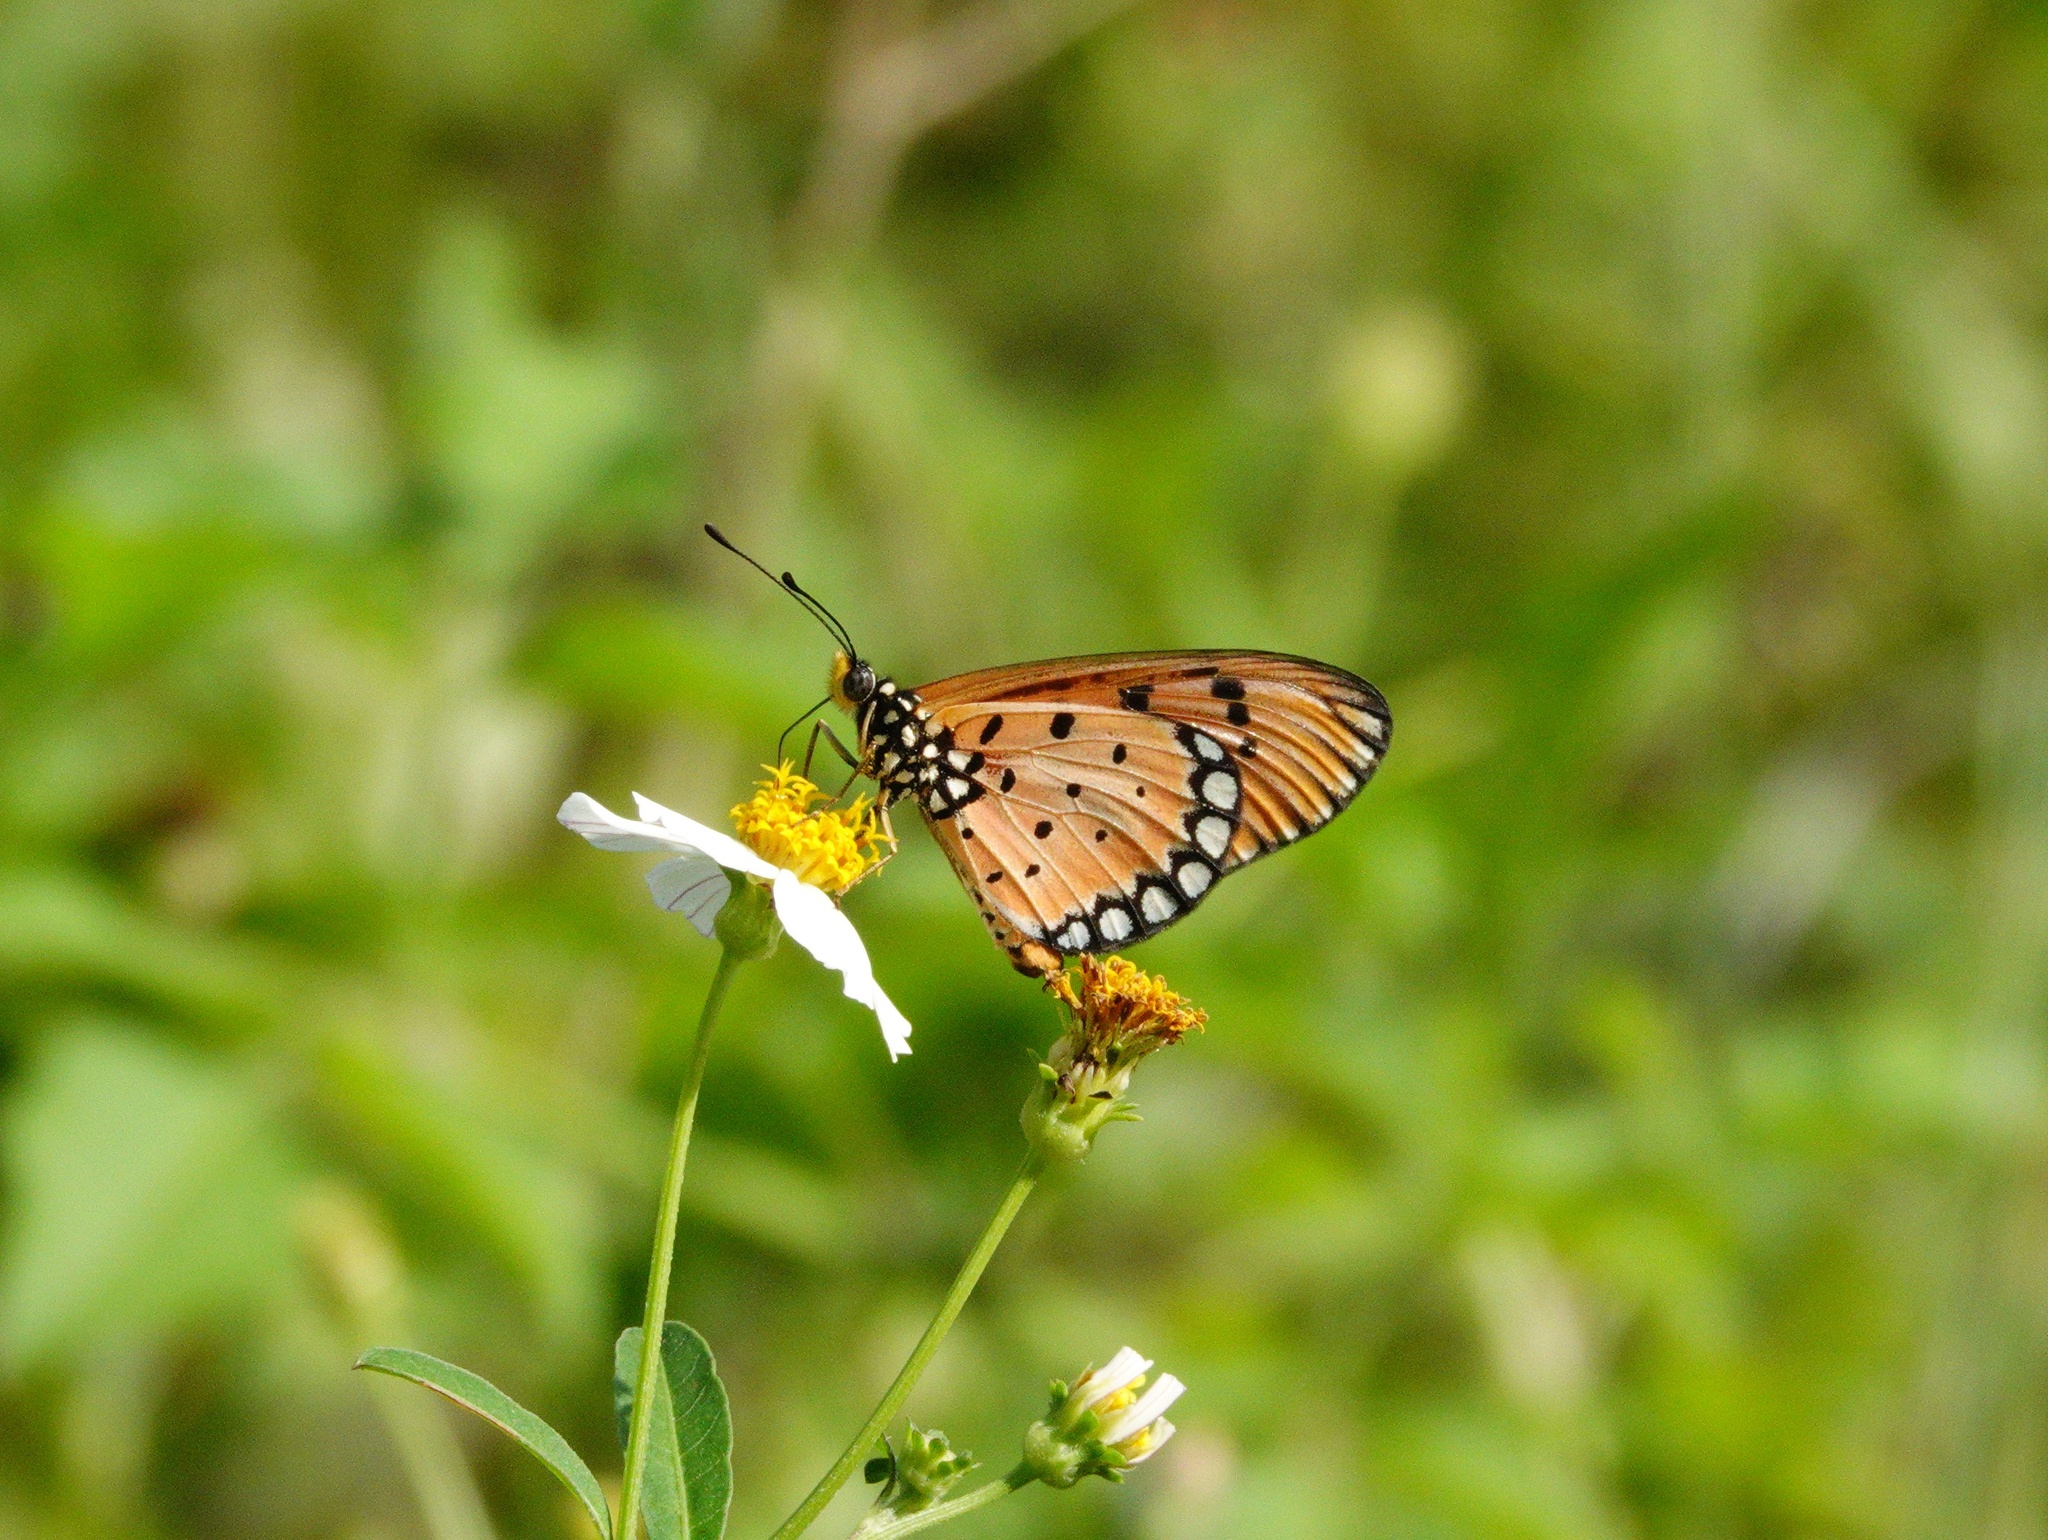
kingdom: Animalia
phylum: Arthropoda
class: Insecta
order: Lepidoptera
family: Nymphalidae
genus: Acraea
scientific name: Acraea terpsicore
